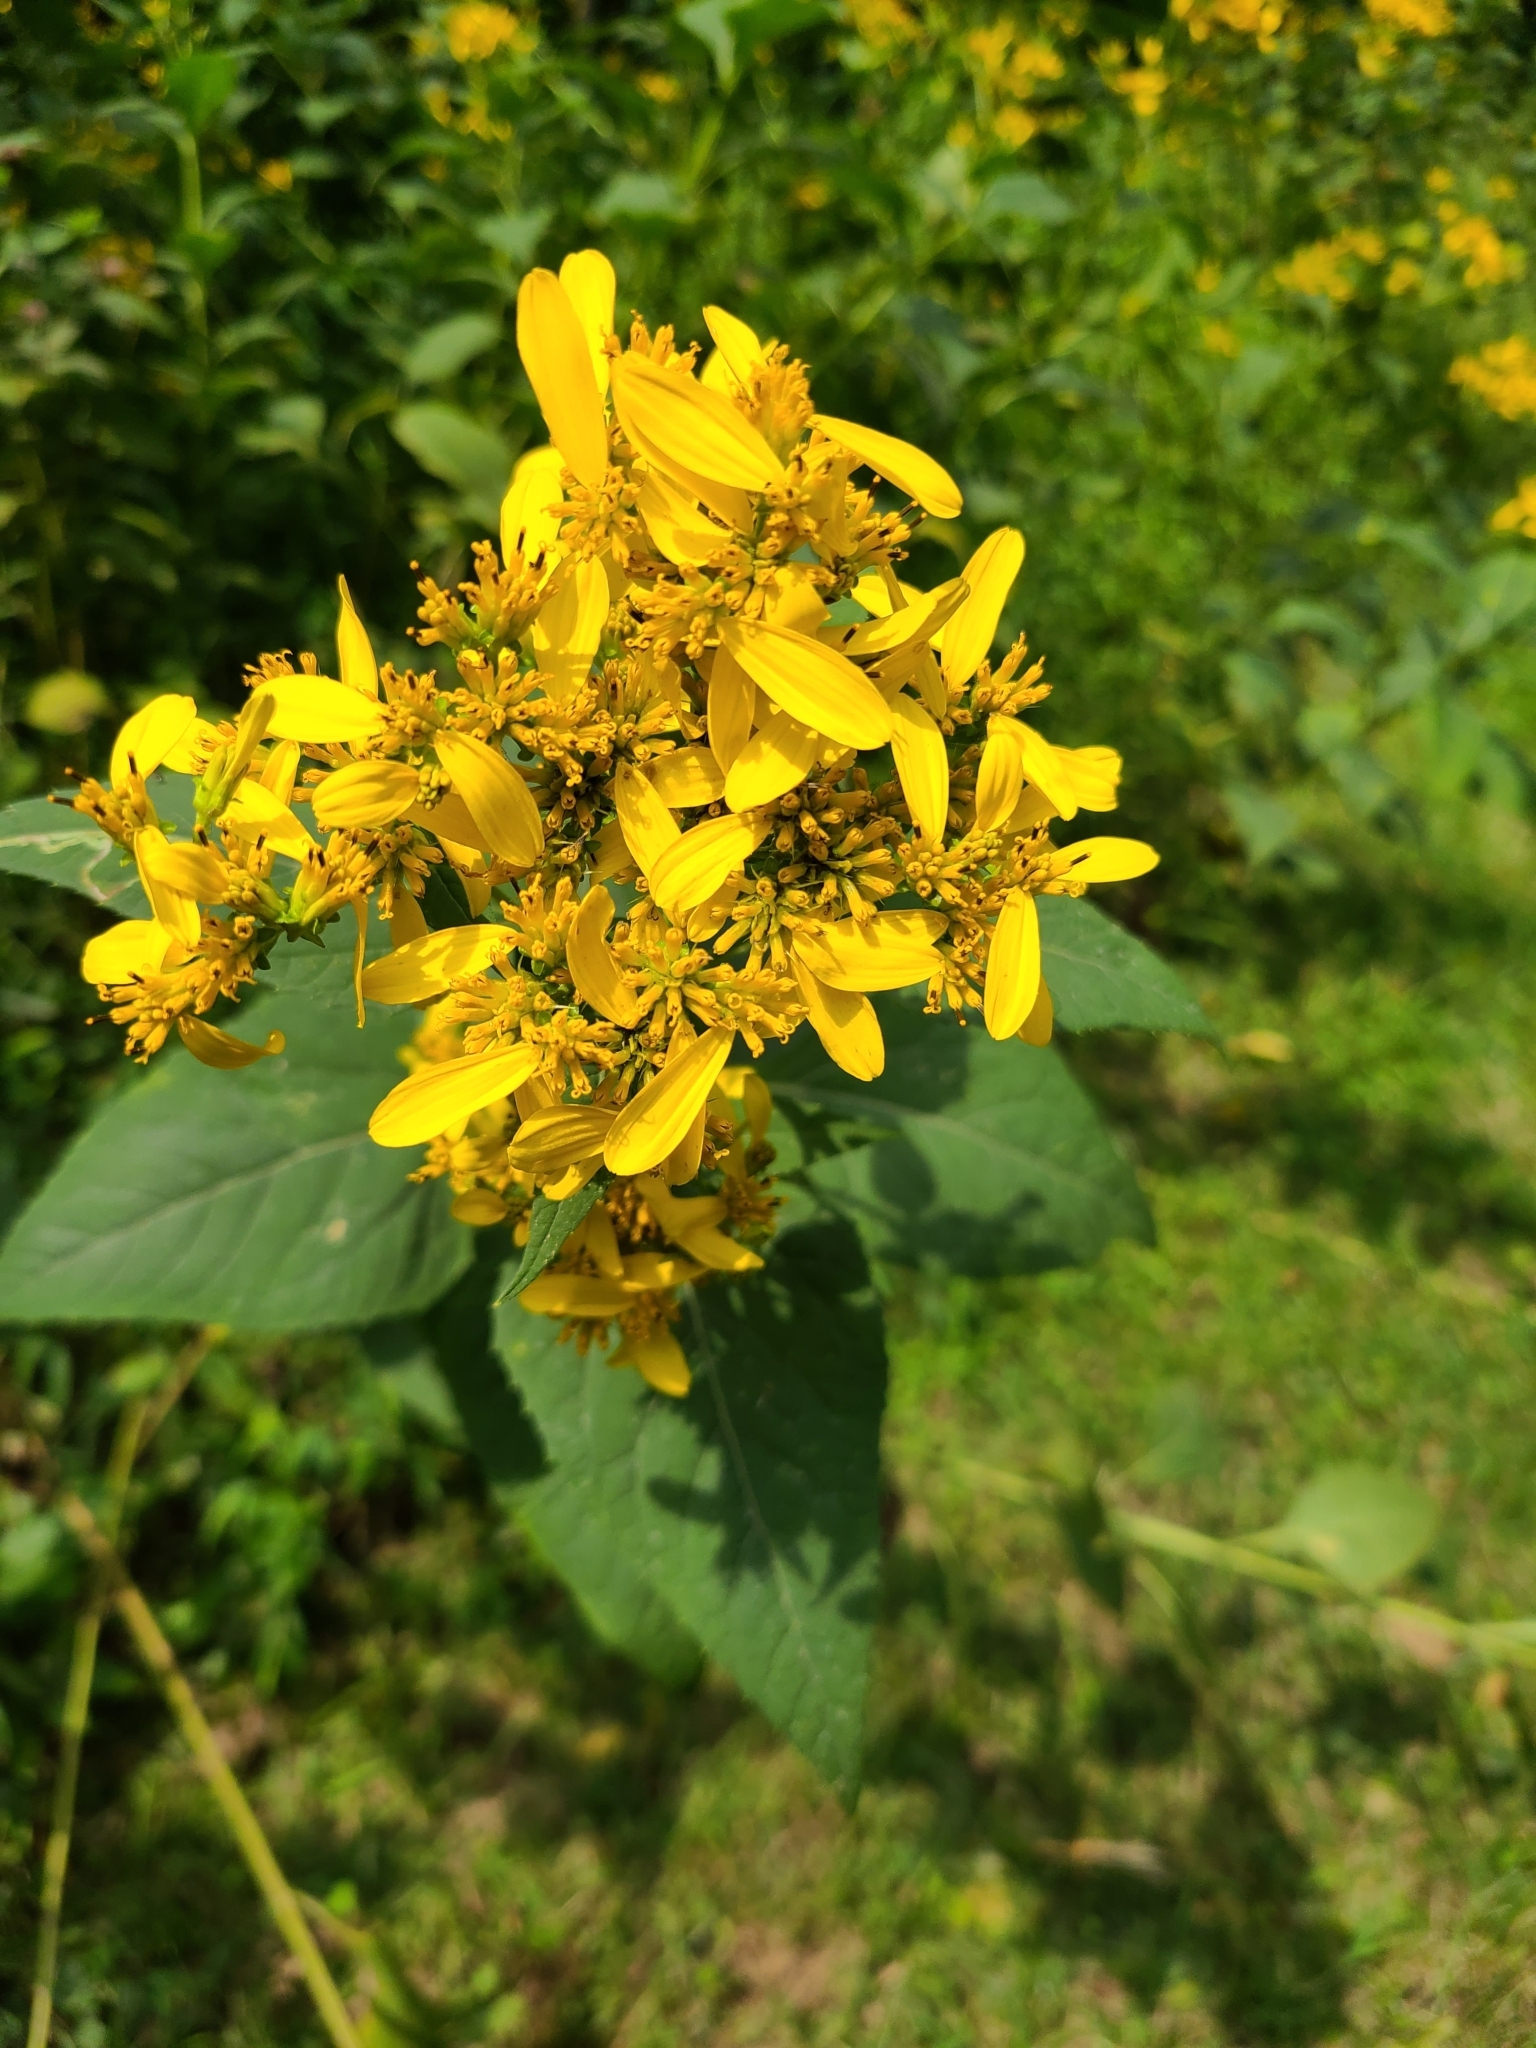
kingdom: Plantae
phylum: Tracheophyta
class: Magnoliopsida
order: Asterales
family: Asteraceae
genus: Verbesina
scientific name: Verbesina occidentalis
